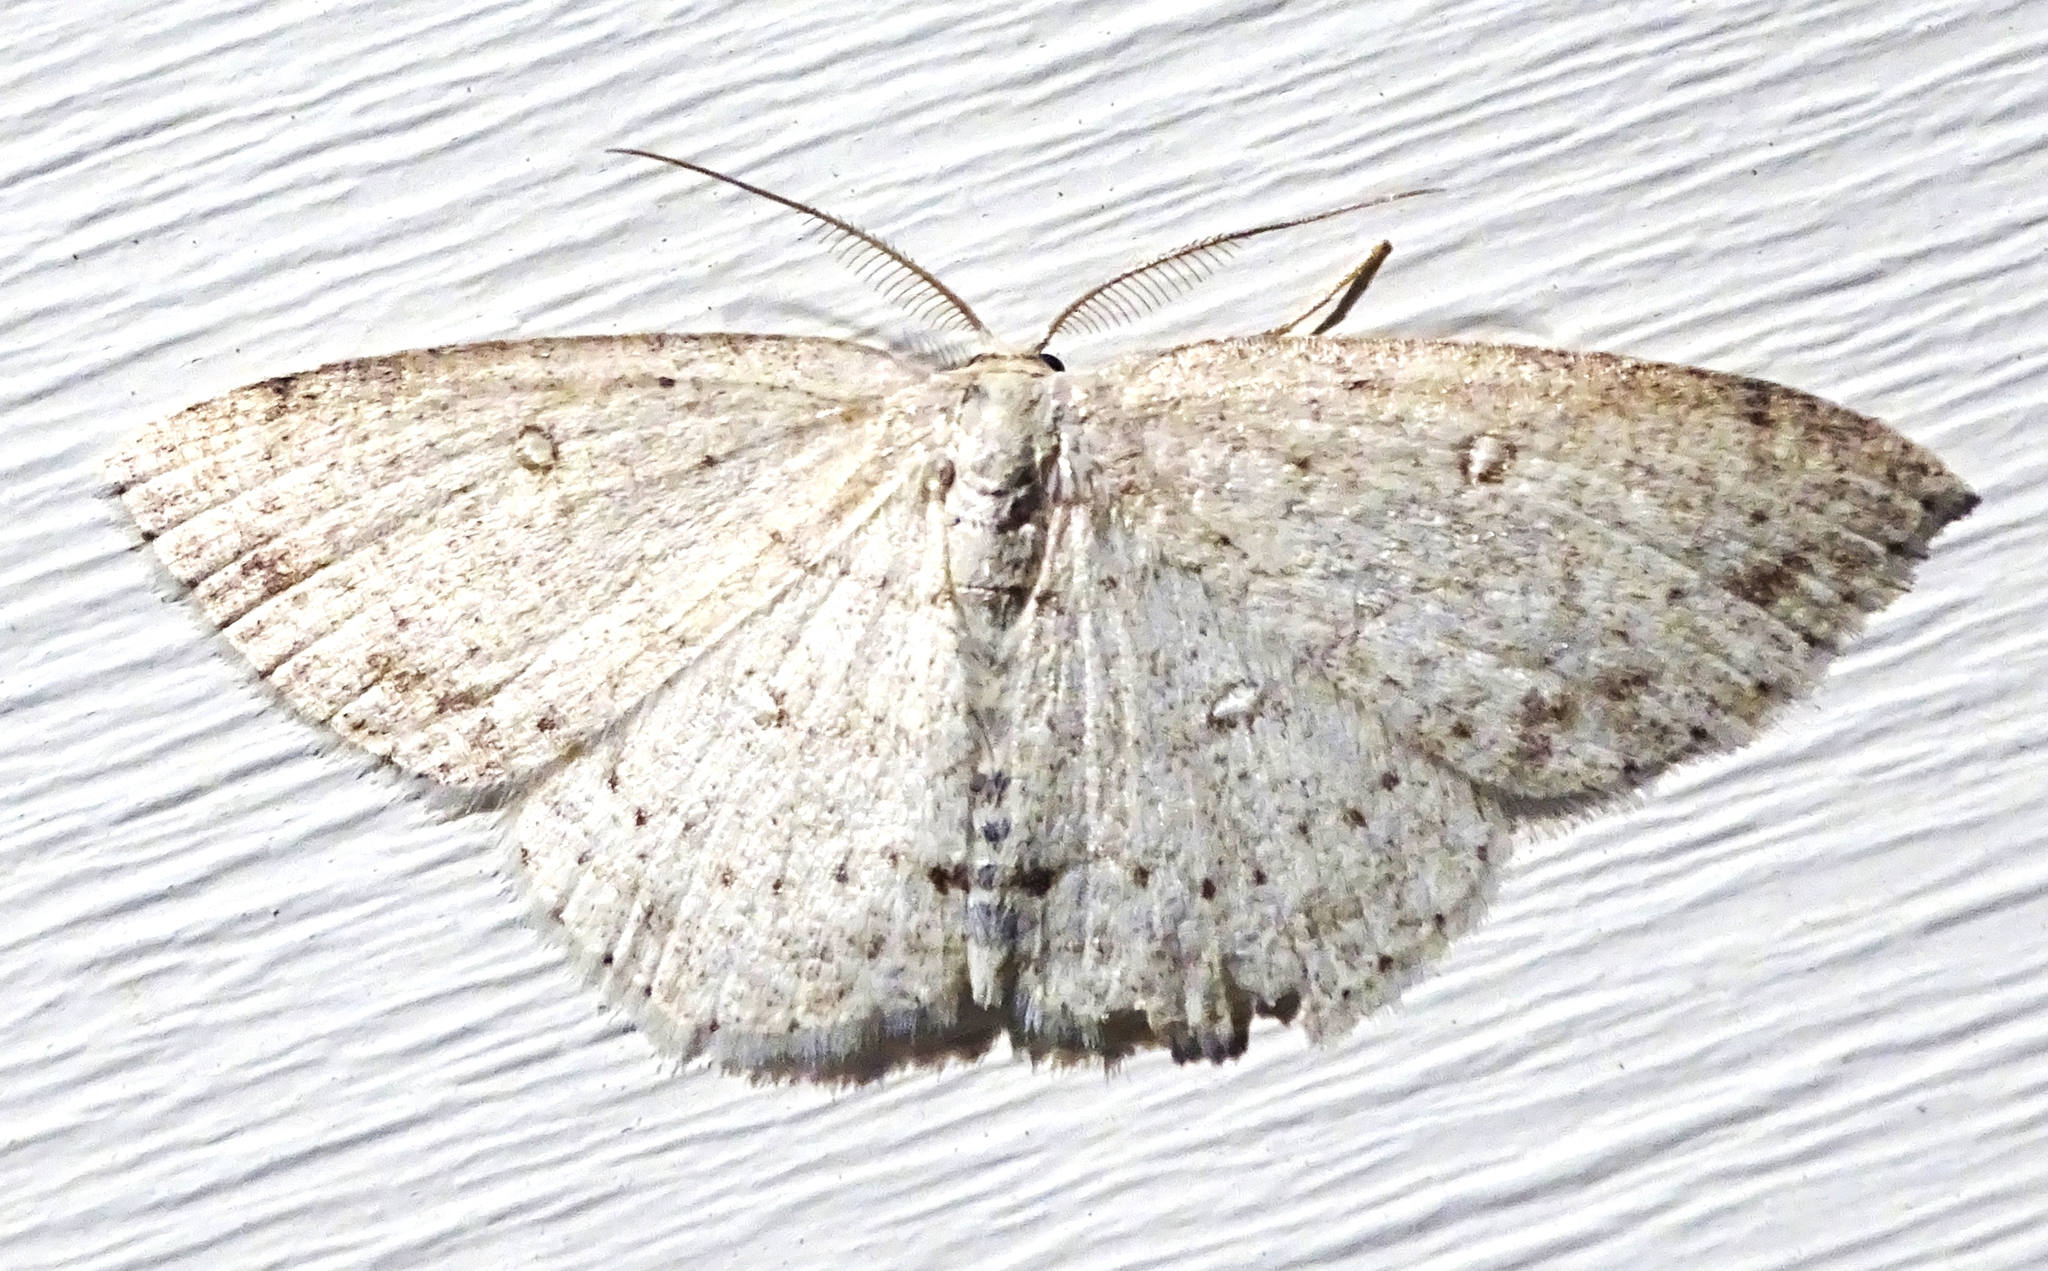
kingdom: Animalia
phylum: Arthropoda
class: Insecta
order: Lepidoptera
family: Geometridae
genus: Cyclophora
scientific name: Cyclophora pendulinaria
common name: Sweet fern geometer
